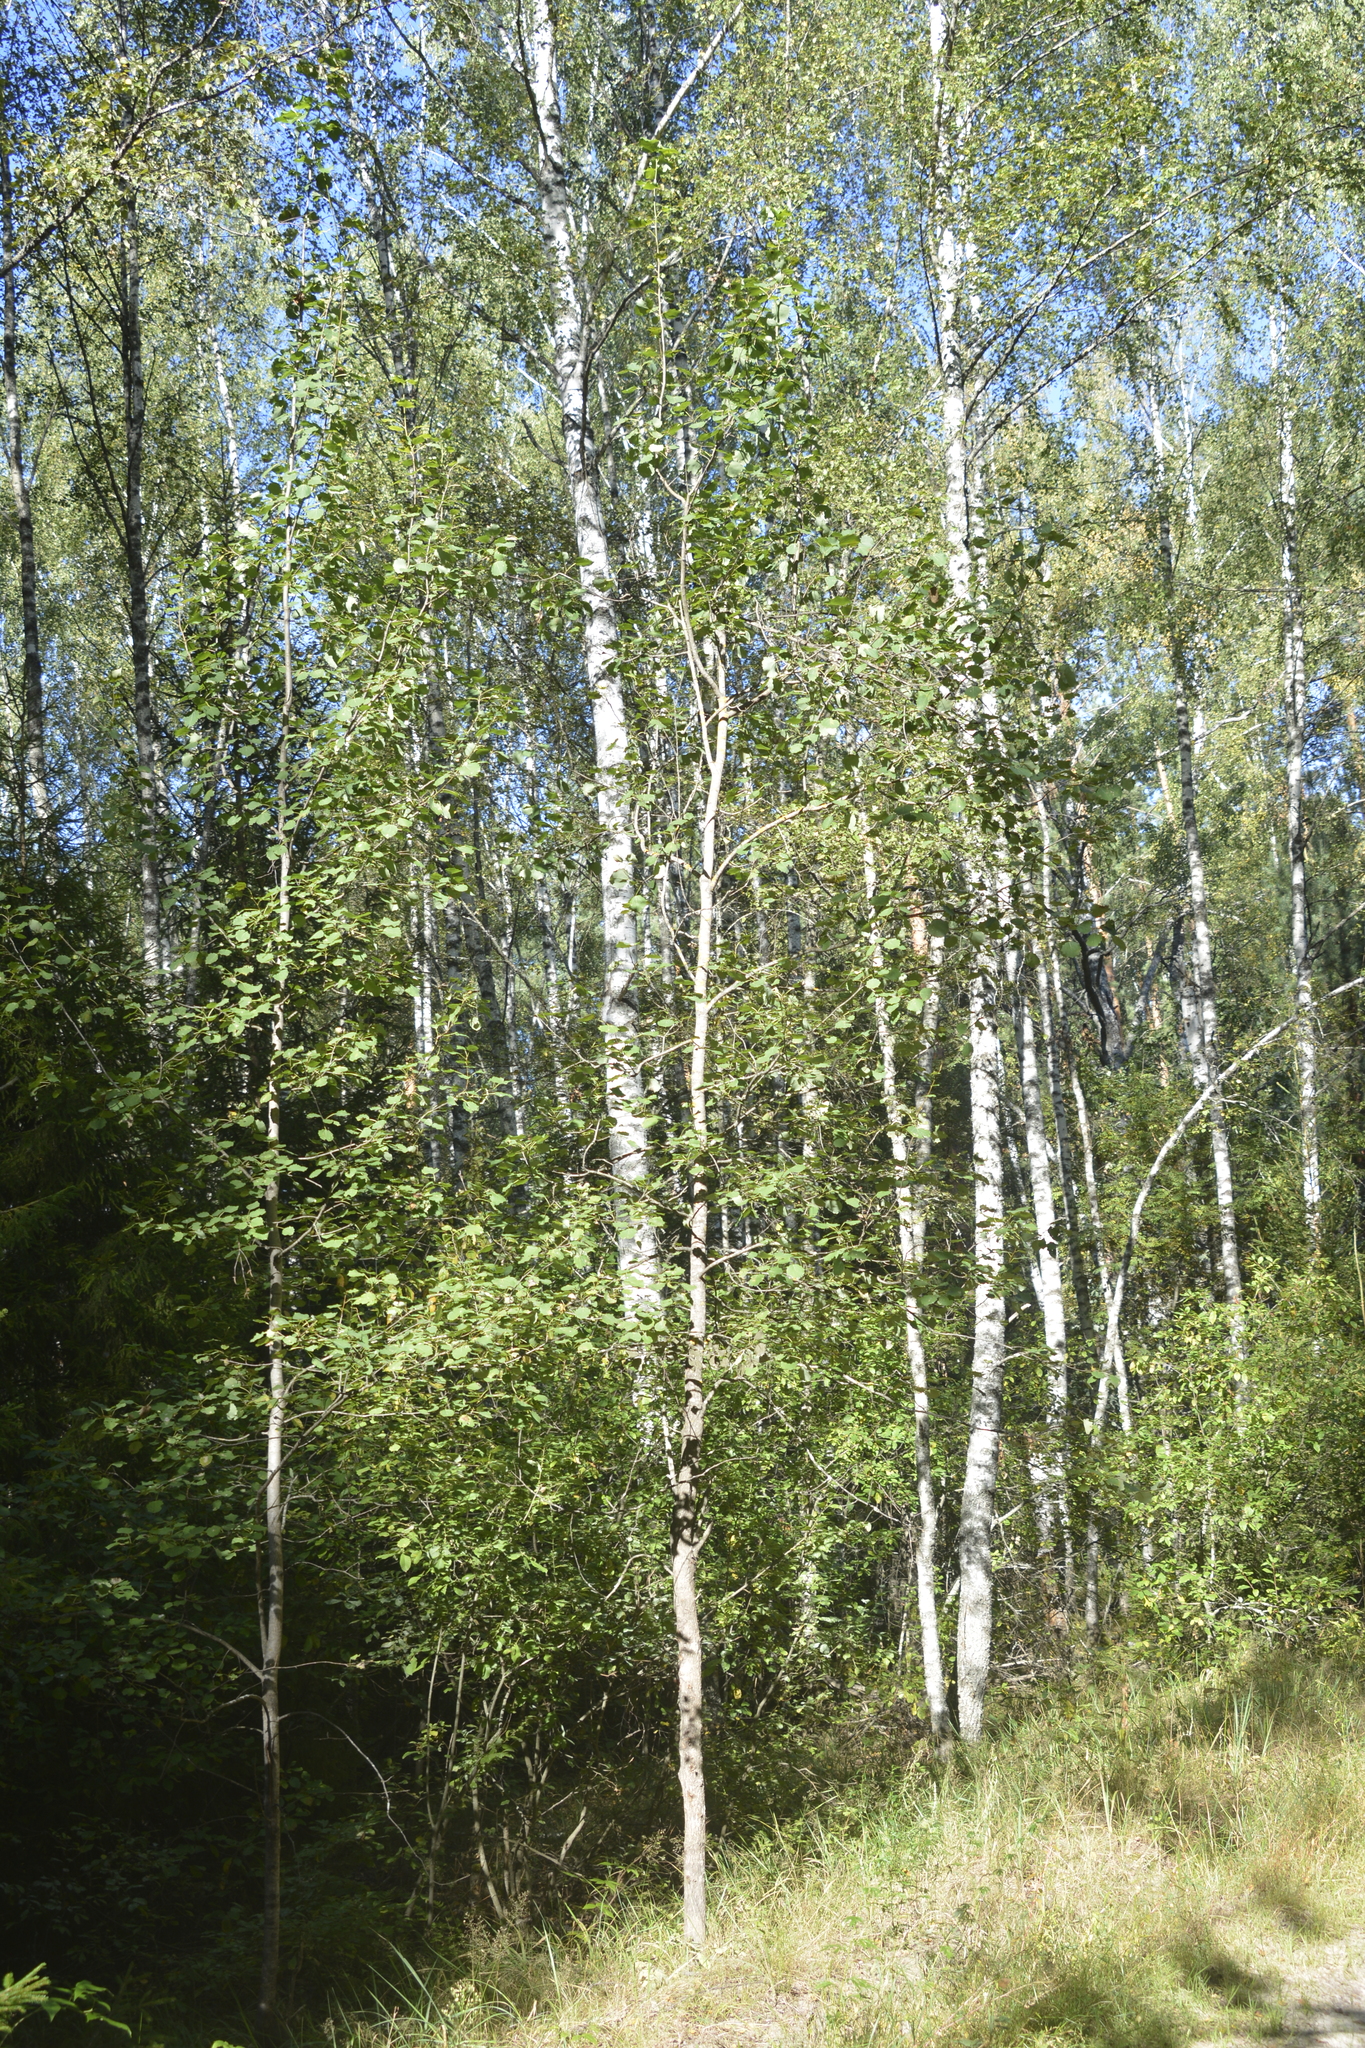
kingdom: Plantae
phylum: Tracheophyta
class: Magnoliopsida
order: Malpighiales
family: Salicaceae
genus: Populus
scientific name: Populus tremula
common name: European aspen
